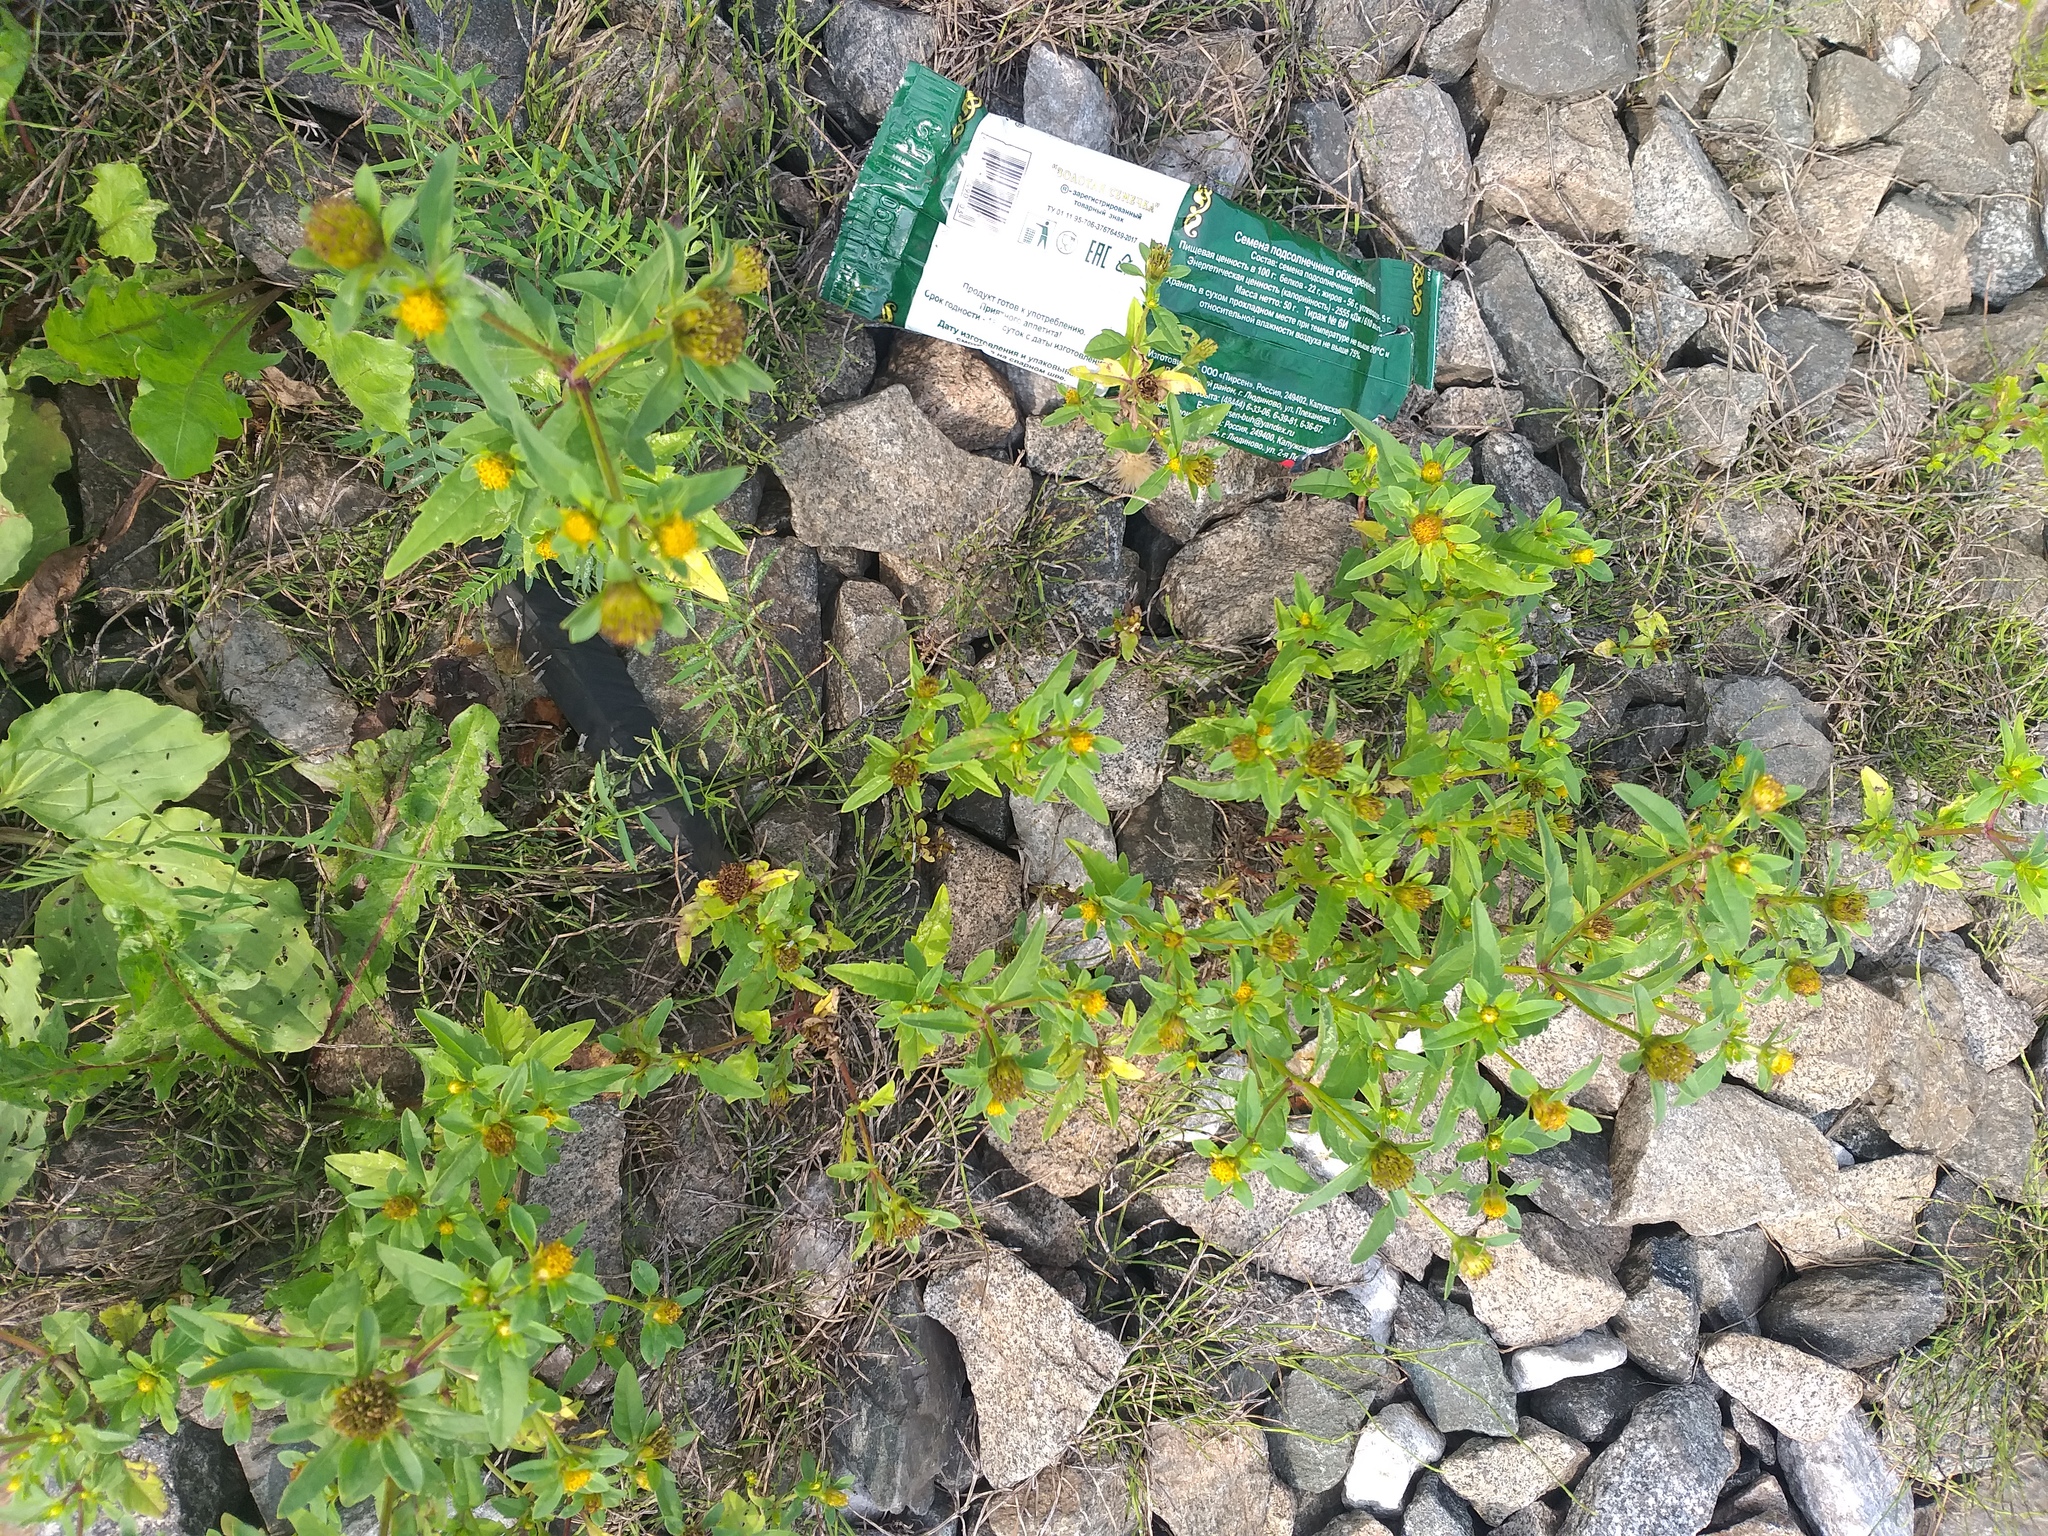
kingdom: Plantae
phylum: Tracheophyta
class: Magnoliopsida
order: Asterales
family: Asteraceae
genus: Bidens
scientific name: Bidens tripartita
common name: Trifid bur-marigold
